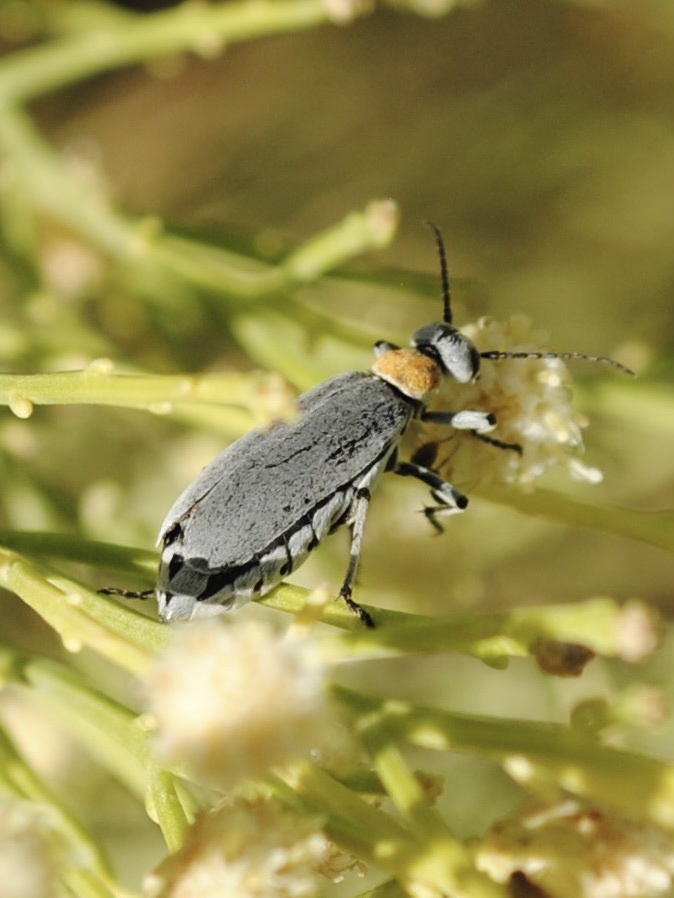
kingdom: Animalia
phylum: Arthropoda
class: Insecta
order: Coleoptera
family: Meloidae
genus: Epicauta
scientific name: Epicauta wheeleri
